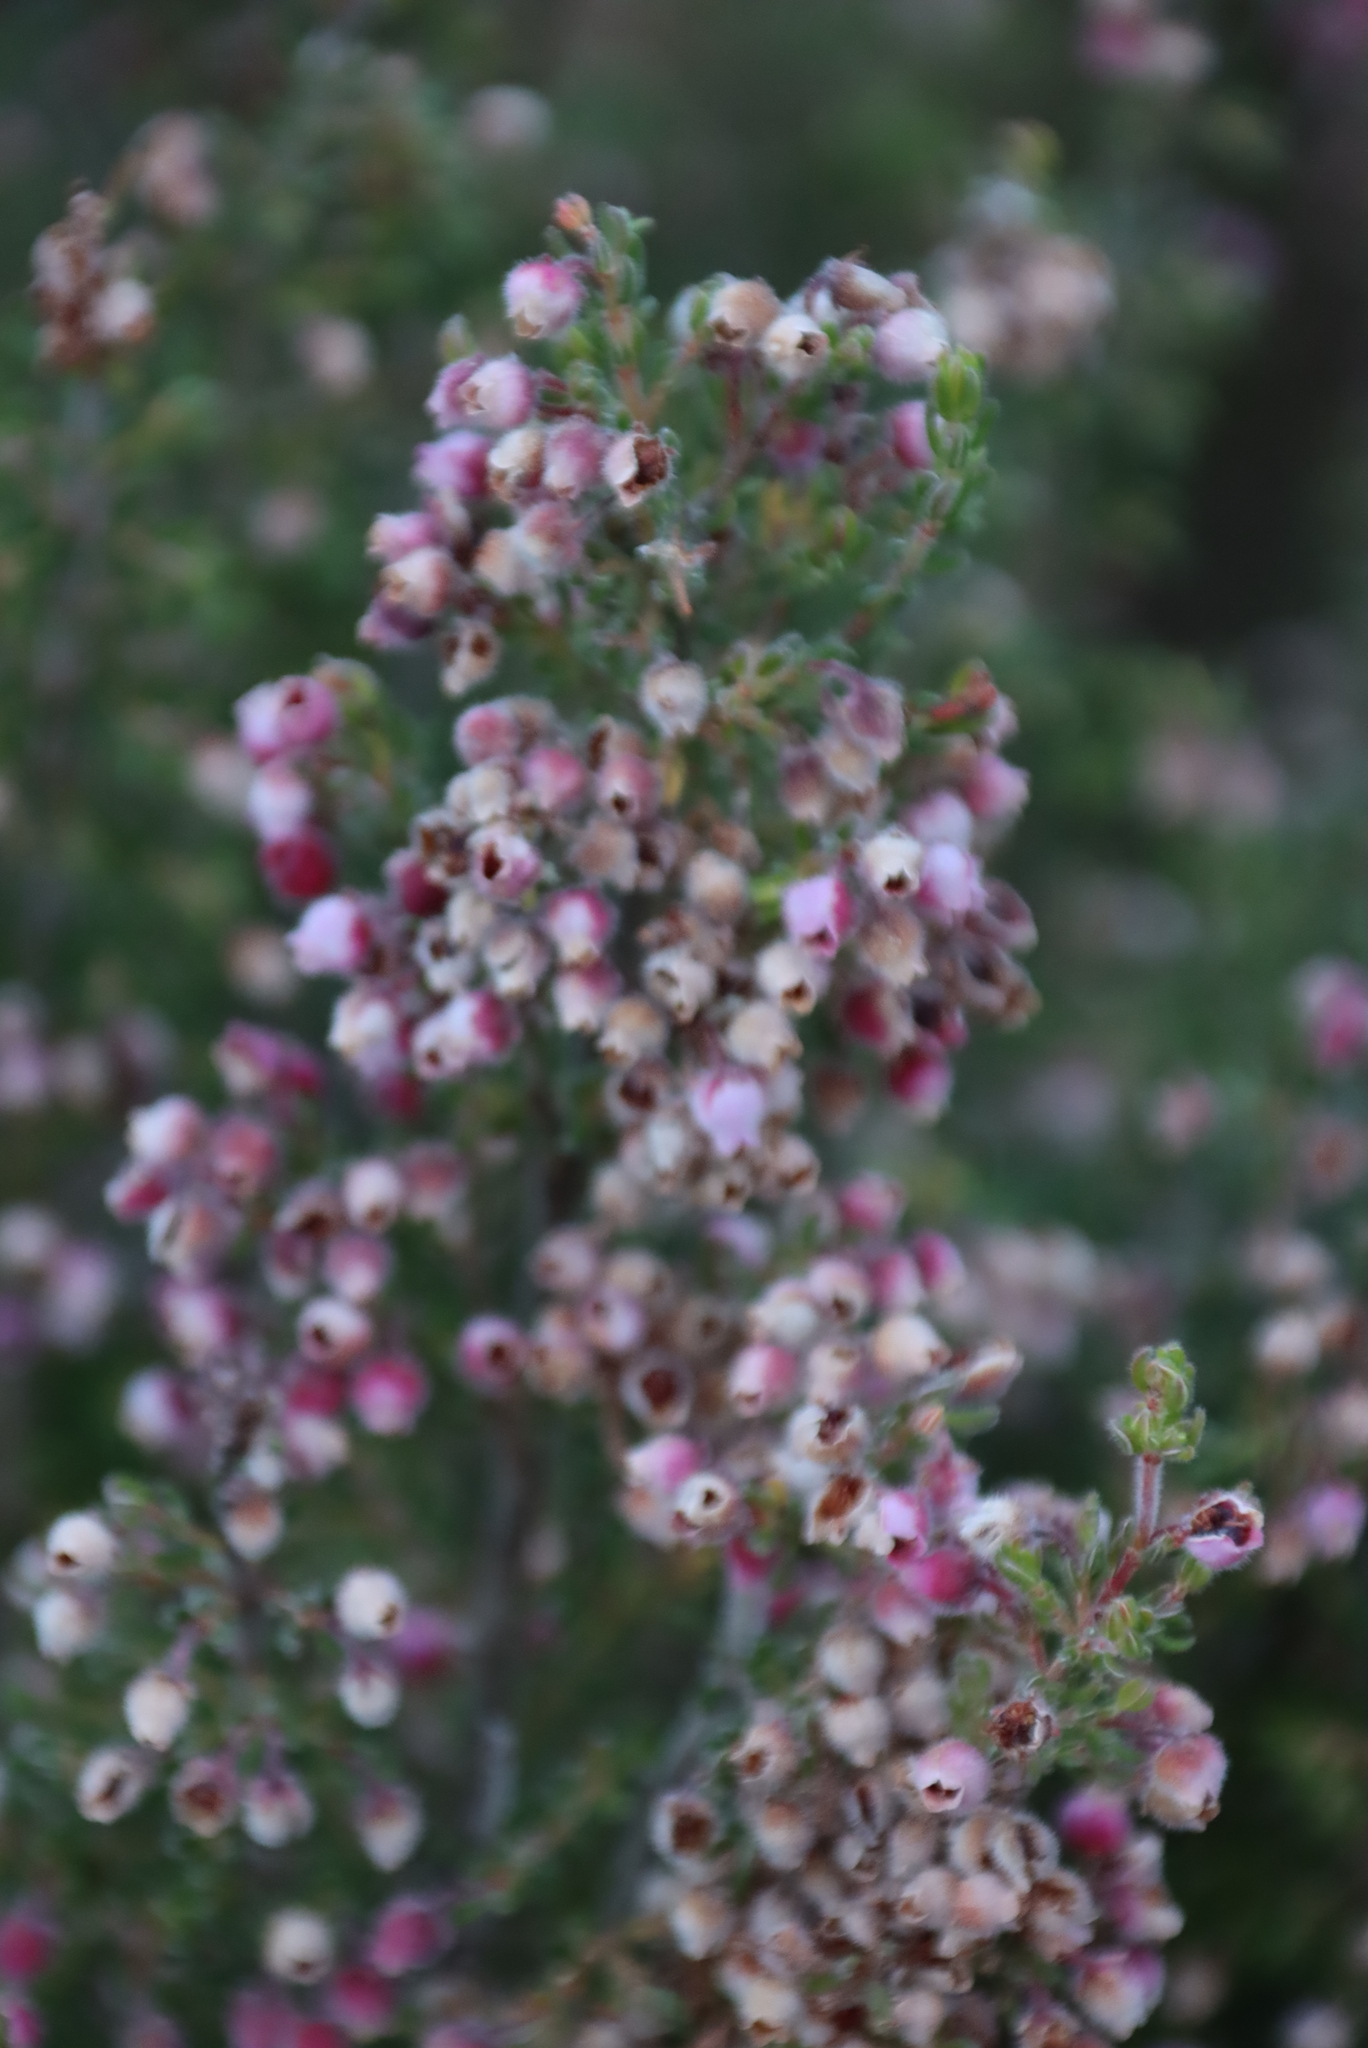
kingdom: Plantae
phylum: Tracheophyta
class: Magnoliopsida
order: Ericales
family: Ericaceae
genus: Erica
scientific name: Erica hirtiflora
